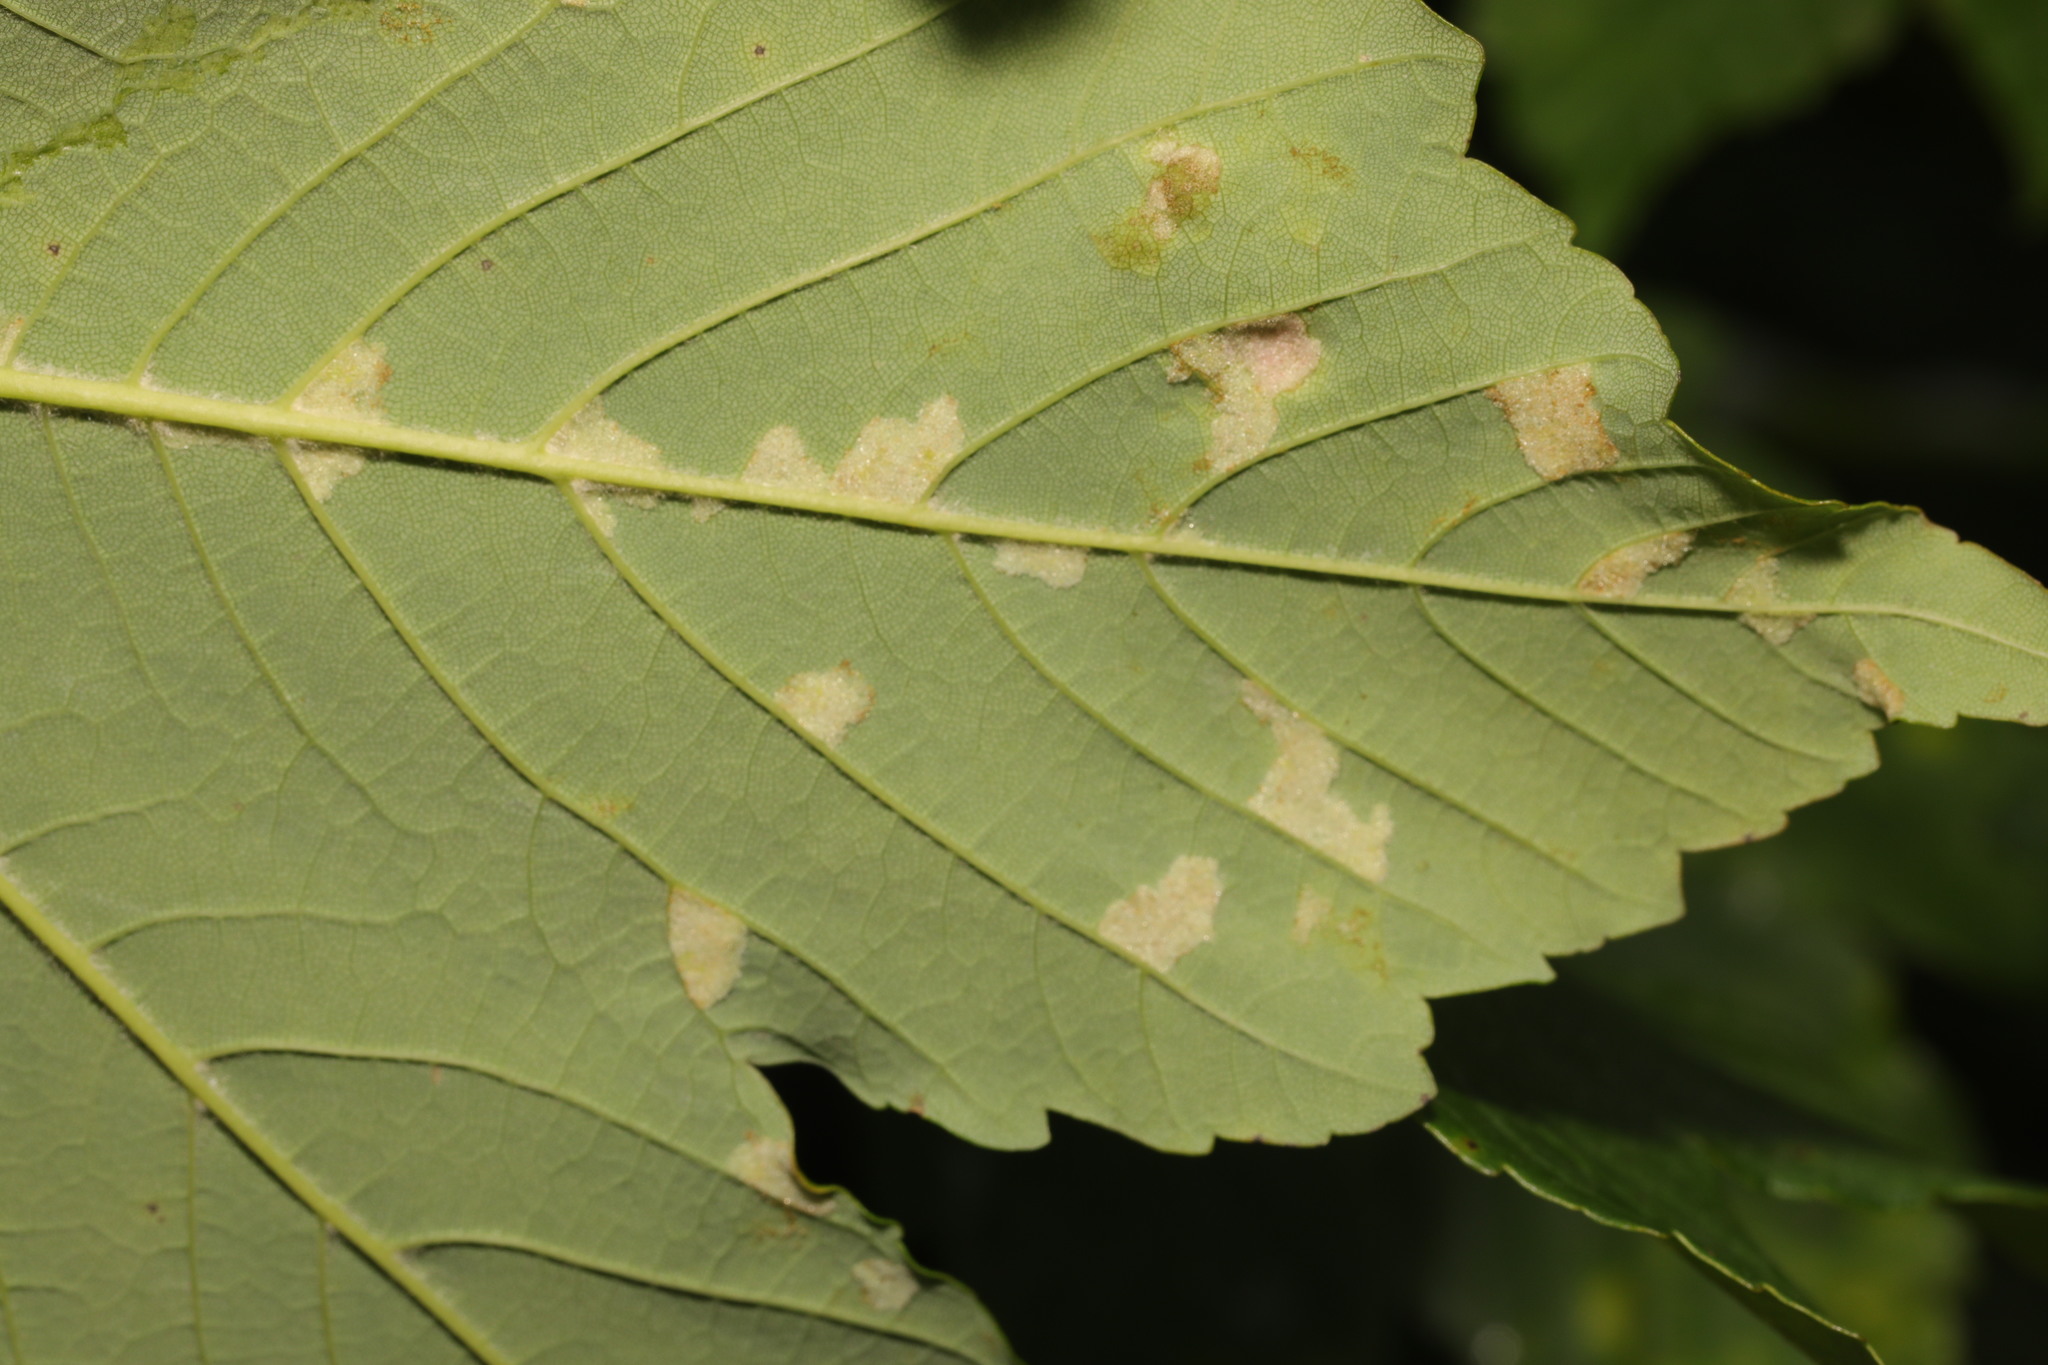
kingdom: Animalia
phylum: Arthropoda
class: Arachnida
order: Trombidiformes
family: Eriophyidae
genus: Aceria
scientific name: Aceria pseudoplatani
